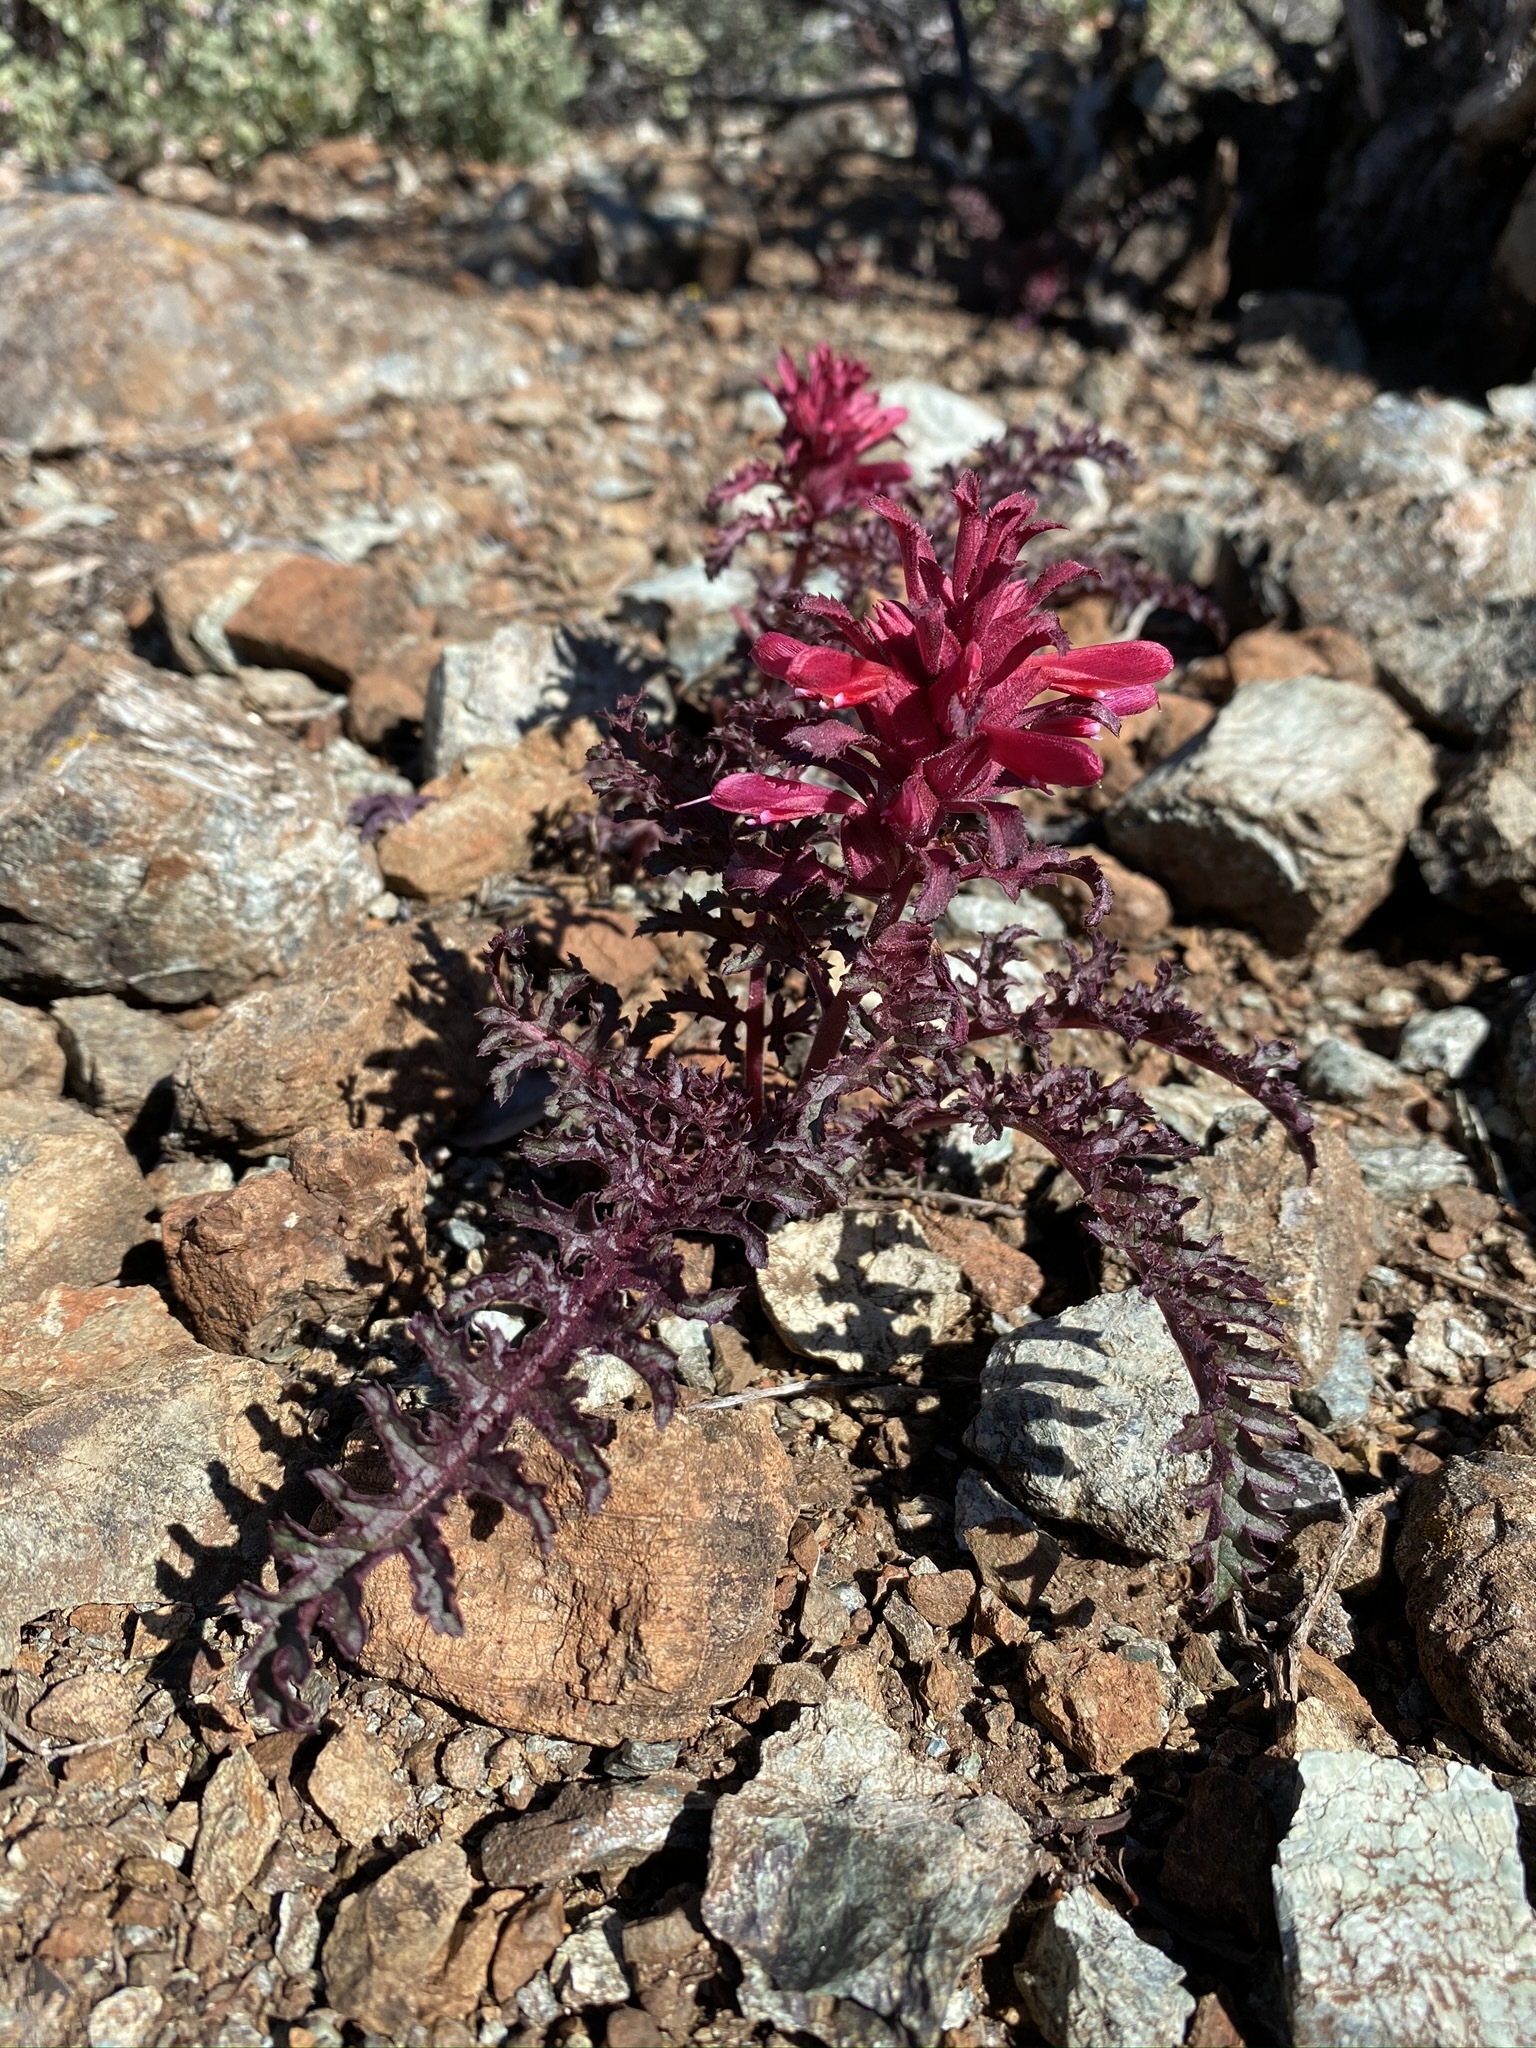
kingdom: Plantae
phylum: Tracheophyta
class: Magnoliopsida
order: Lamiales
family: Orobanchaceae
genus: Pedicularis
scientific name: Pedicularis densiflora
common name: Indian warrior
